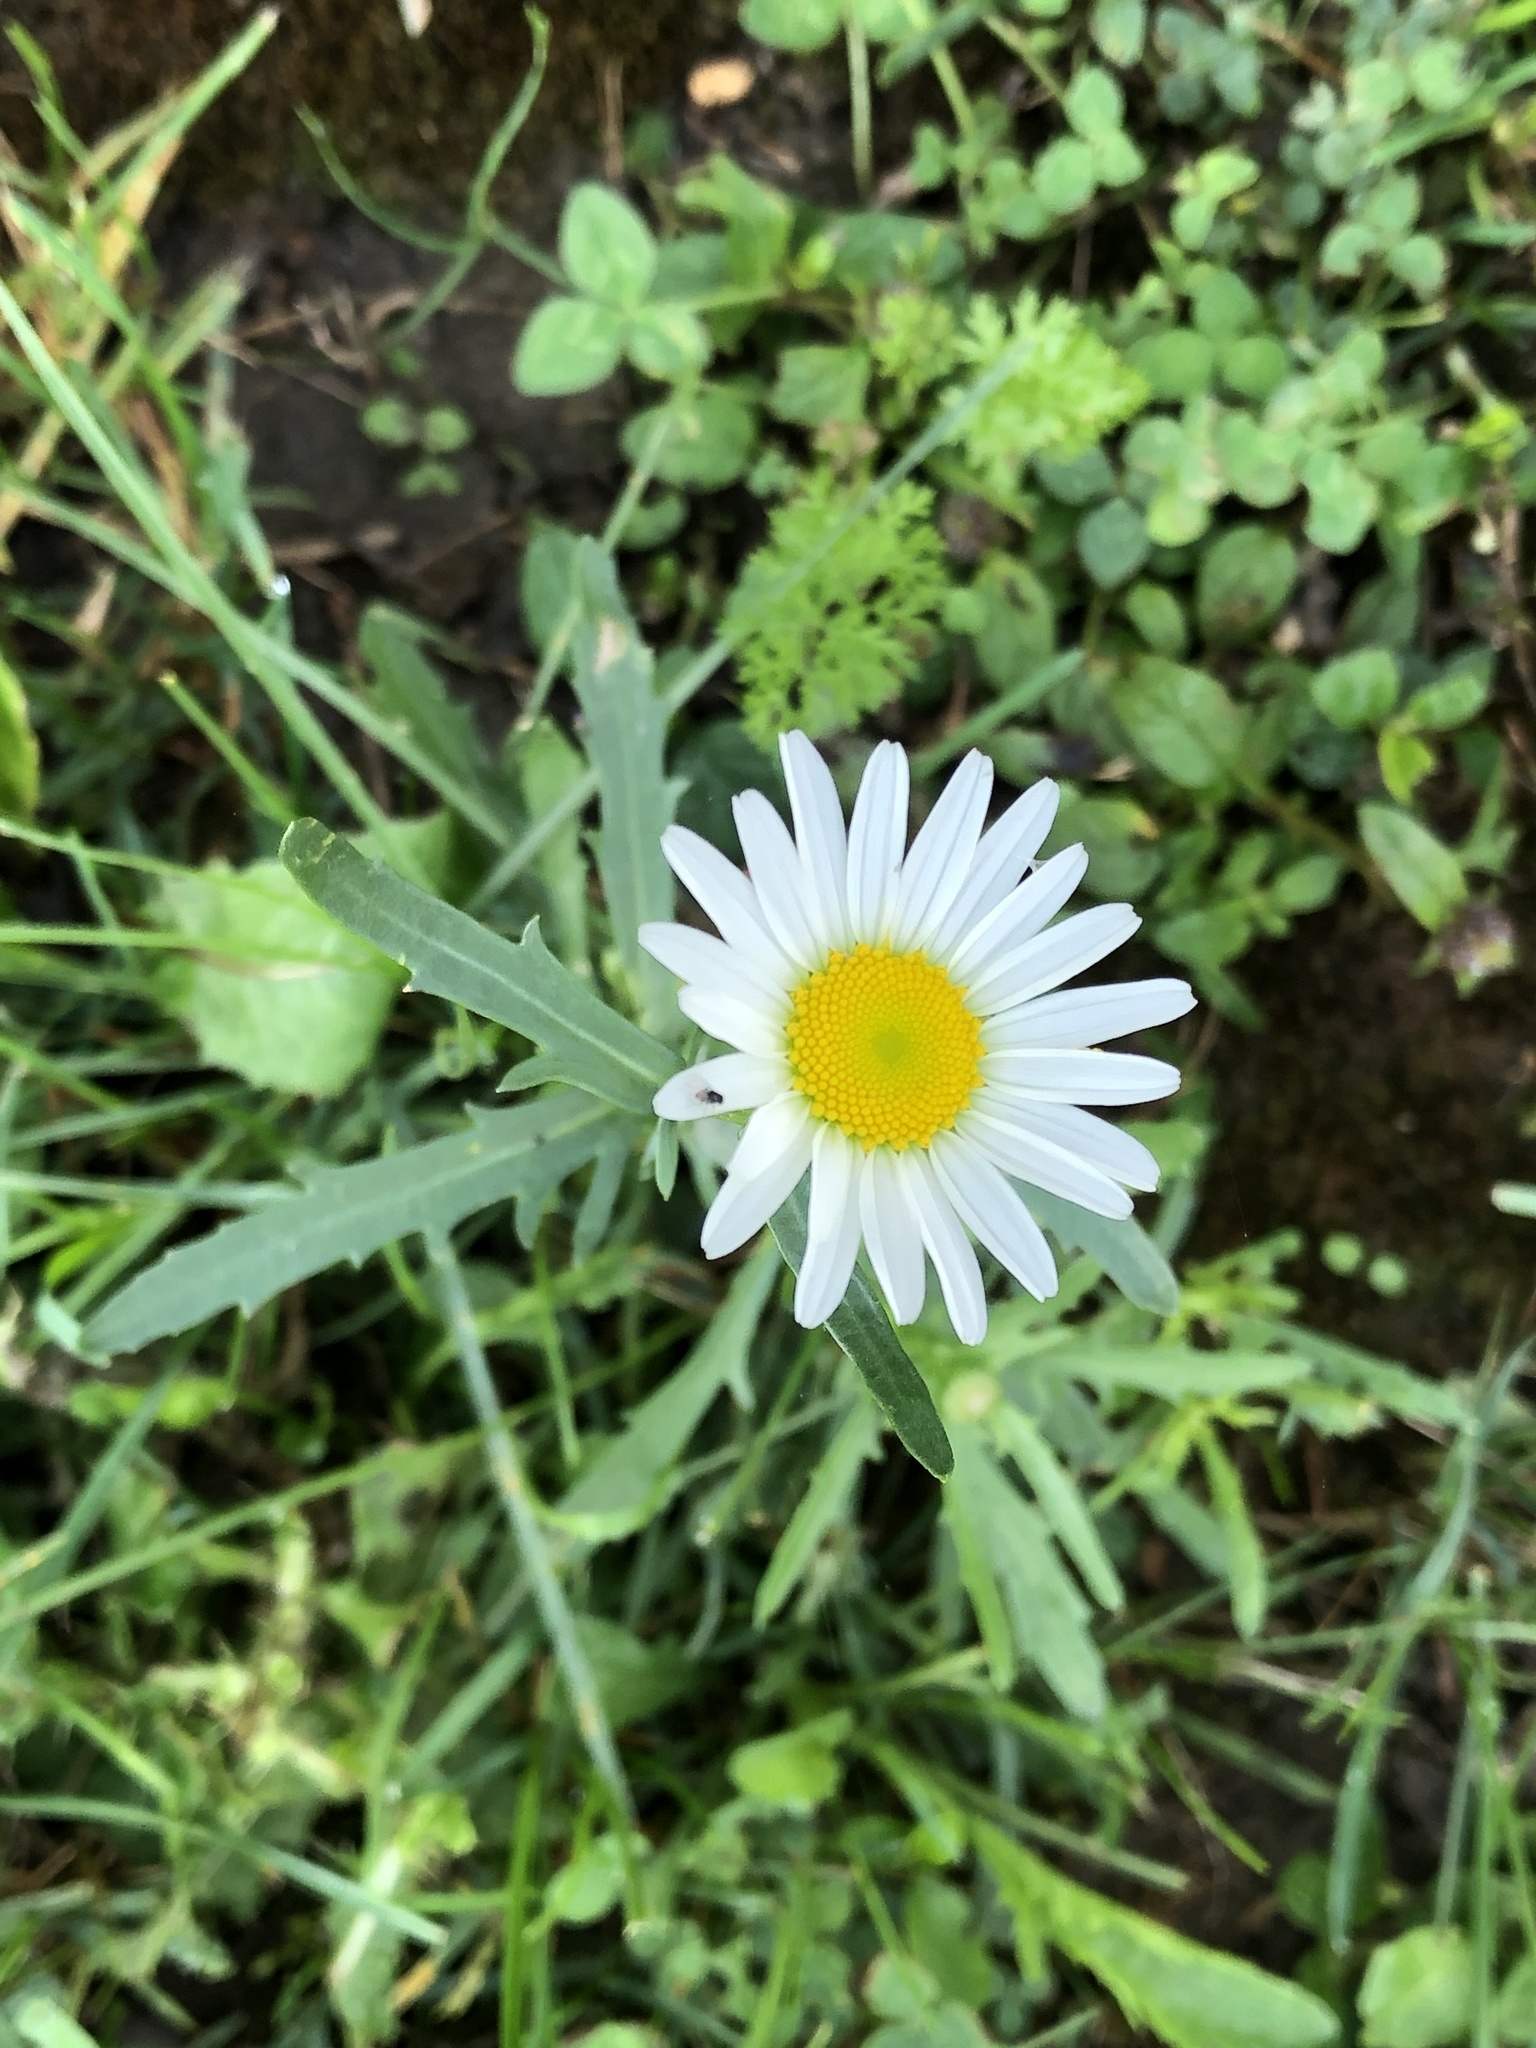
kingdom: Plantae
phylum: Tracheophyta
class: Magnoliopsida
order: Asterales
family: Asteraceae
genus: Leucanthemum
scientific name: Leucanthemum vulgare
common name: Oxeye daisy
